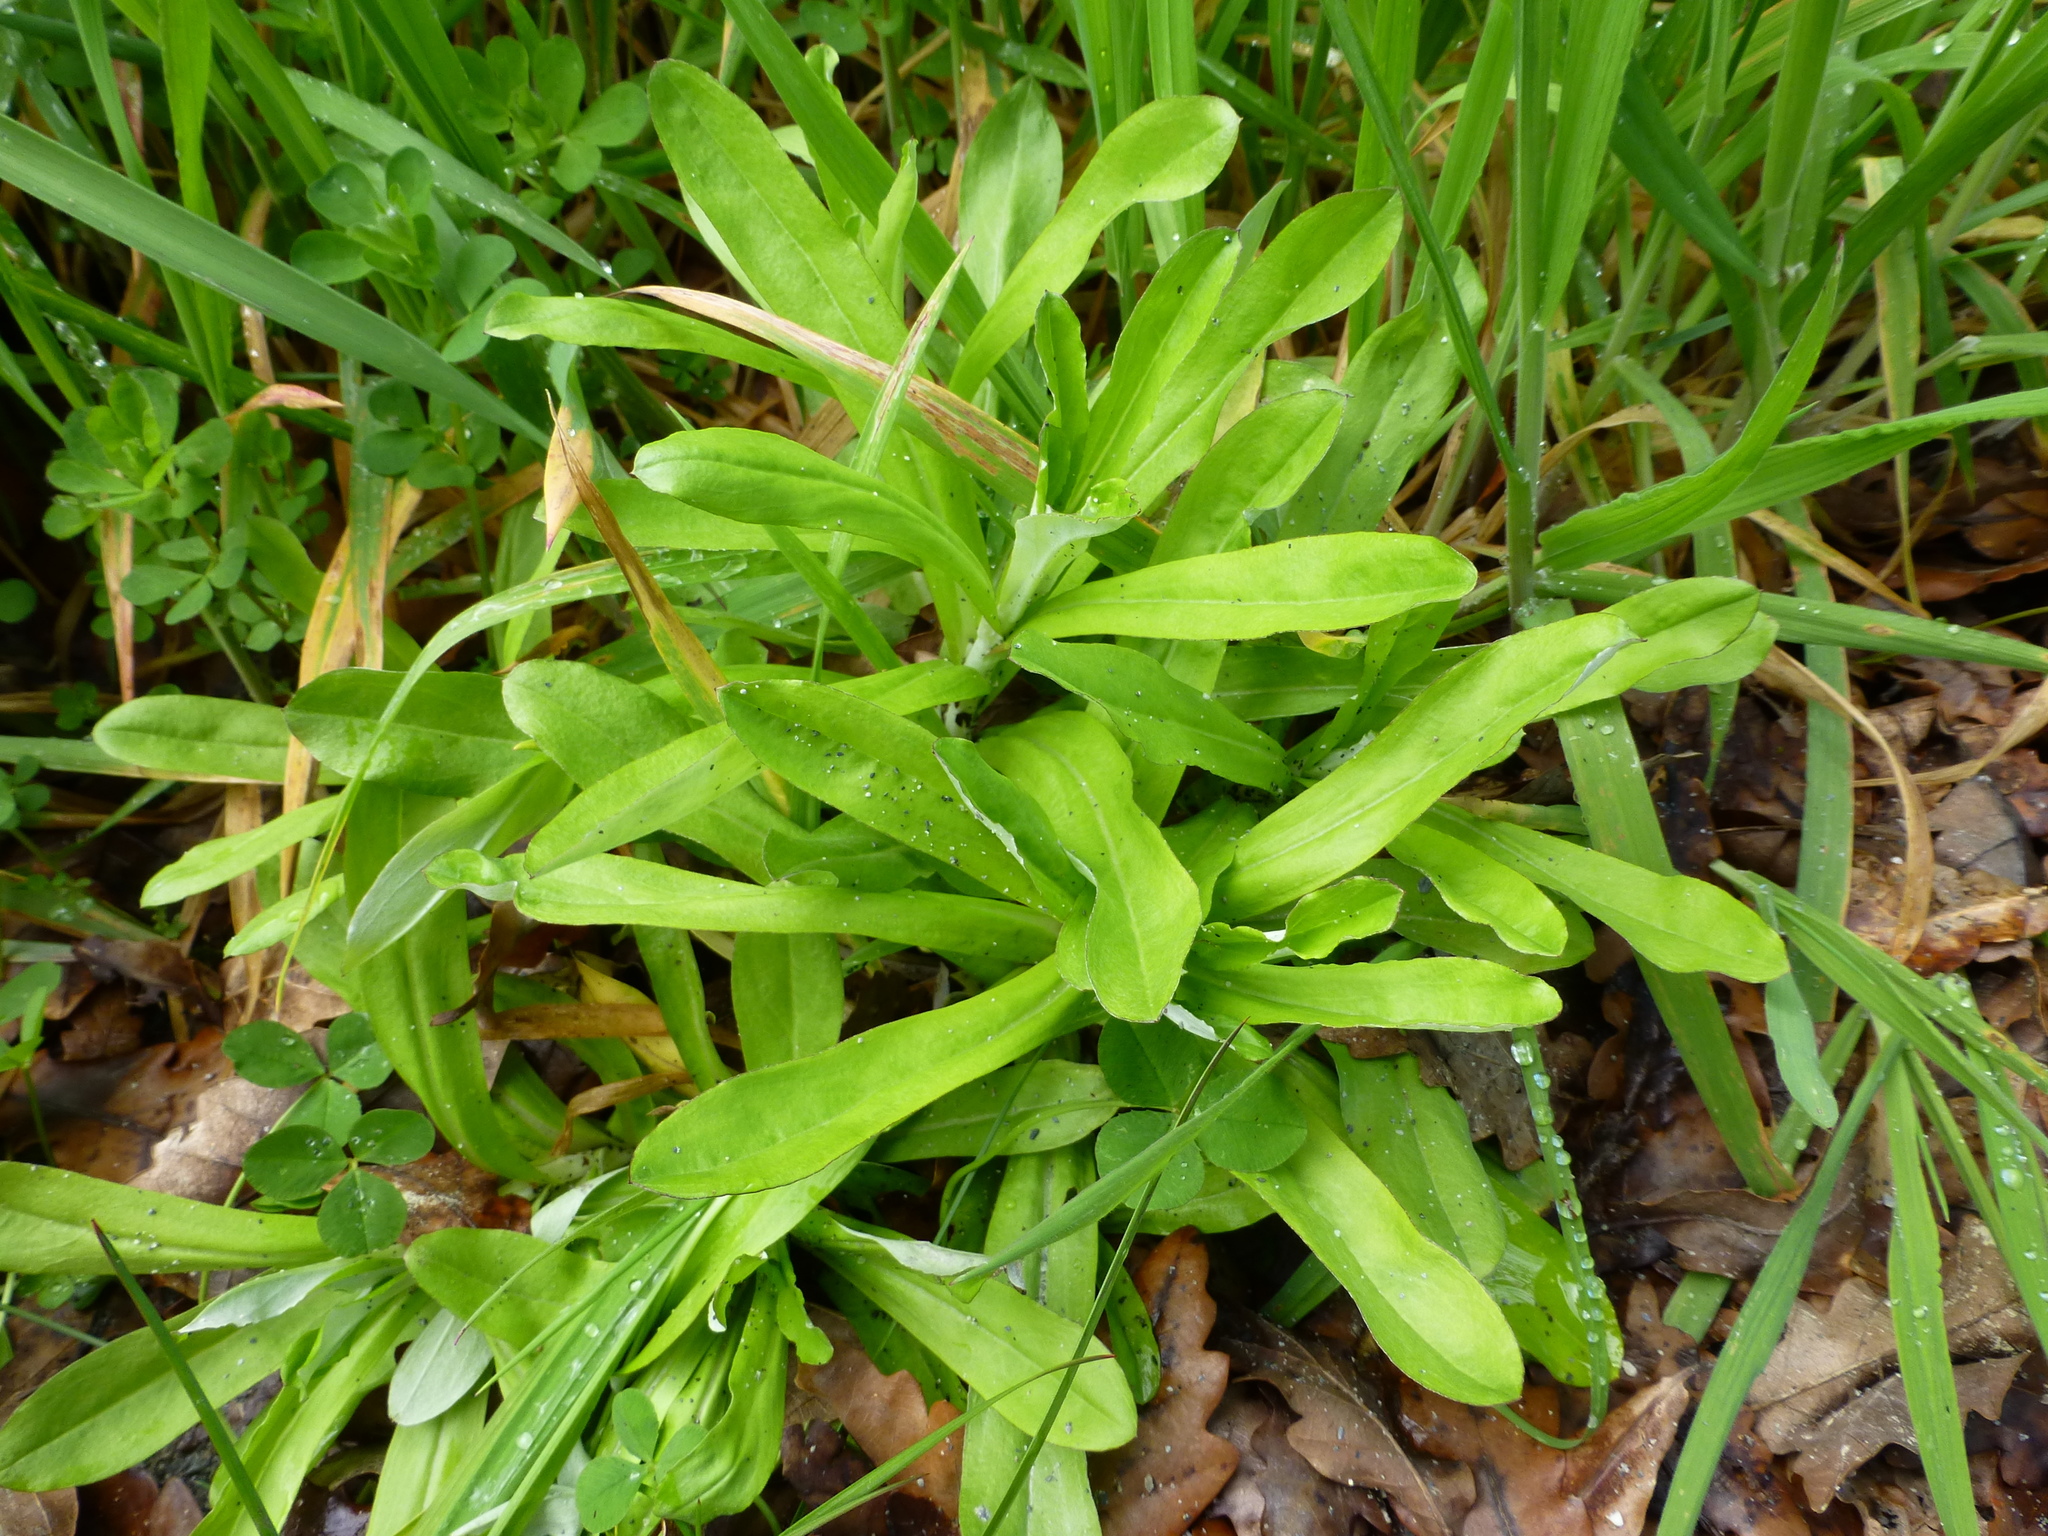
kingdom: Plantae
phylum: Tracheophyta
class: Magnoliopsida
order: Asterales
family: Asteraceae
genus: Gamochaeta
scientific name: Gamochaeta americana
